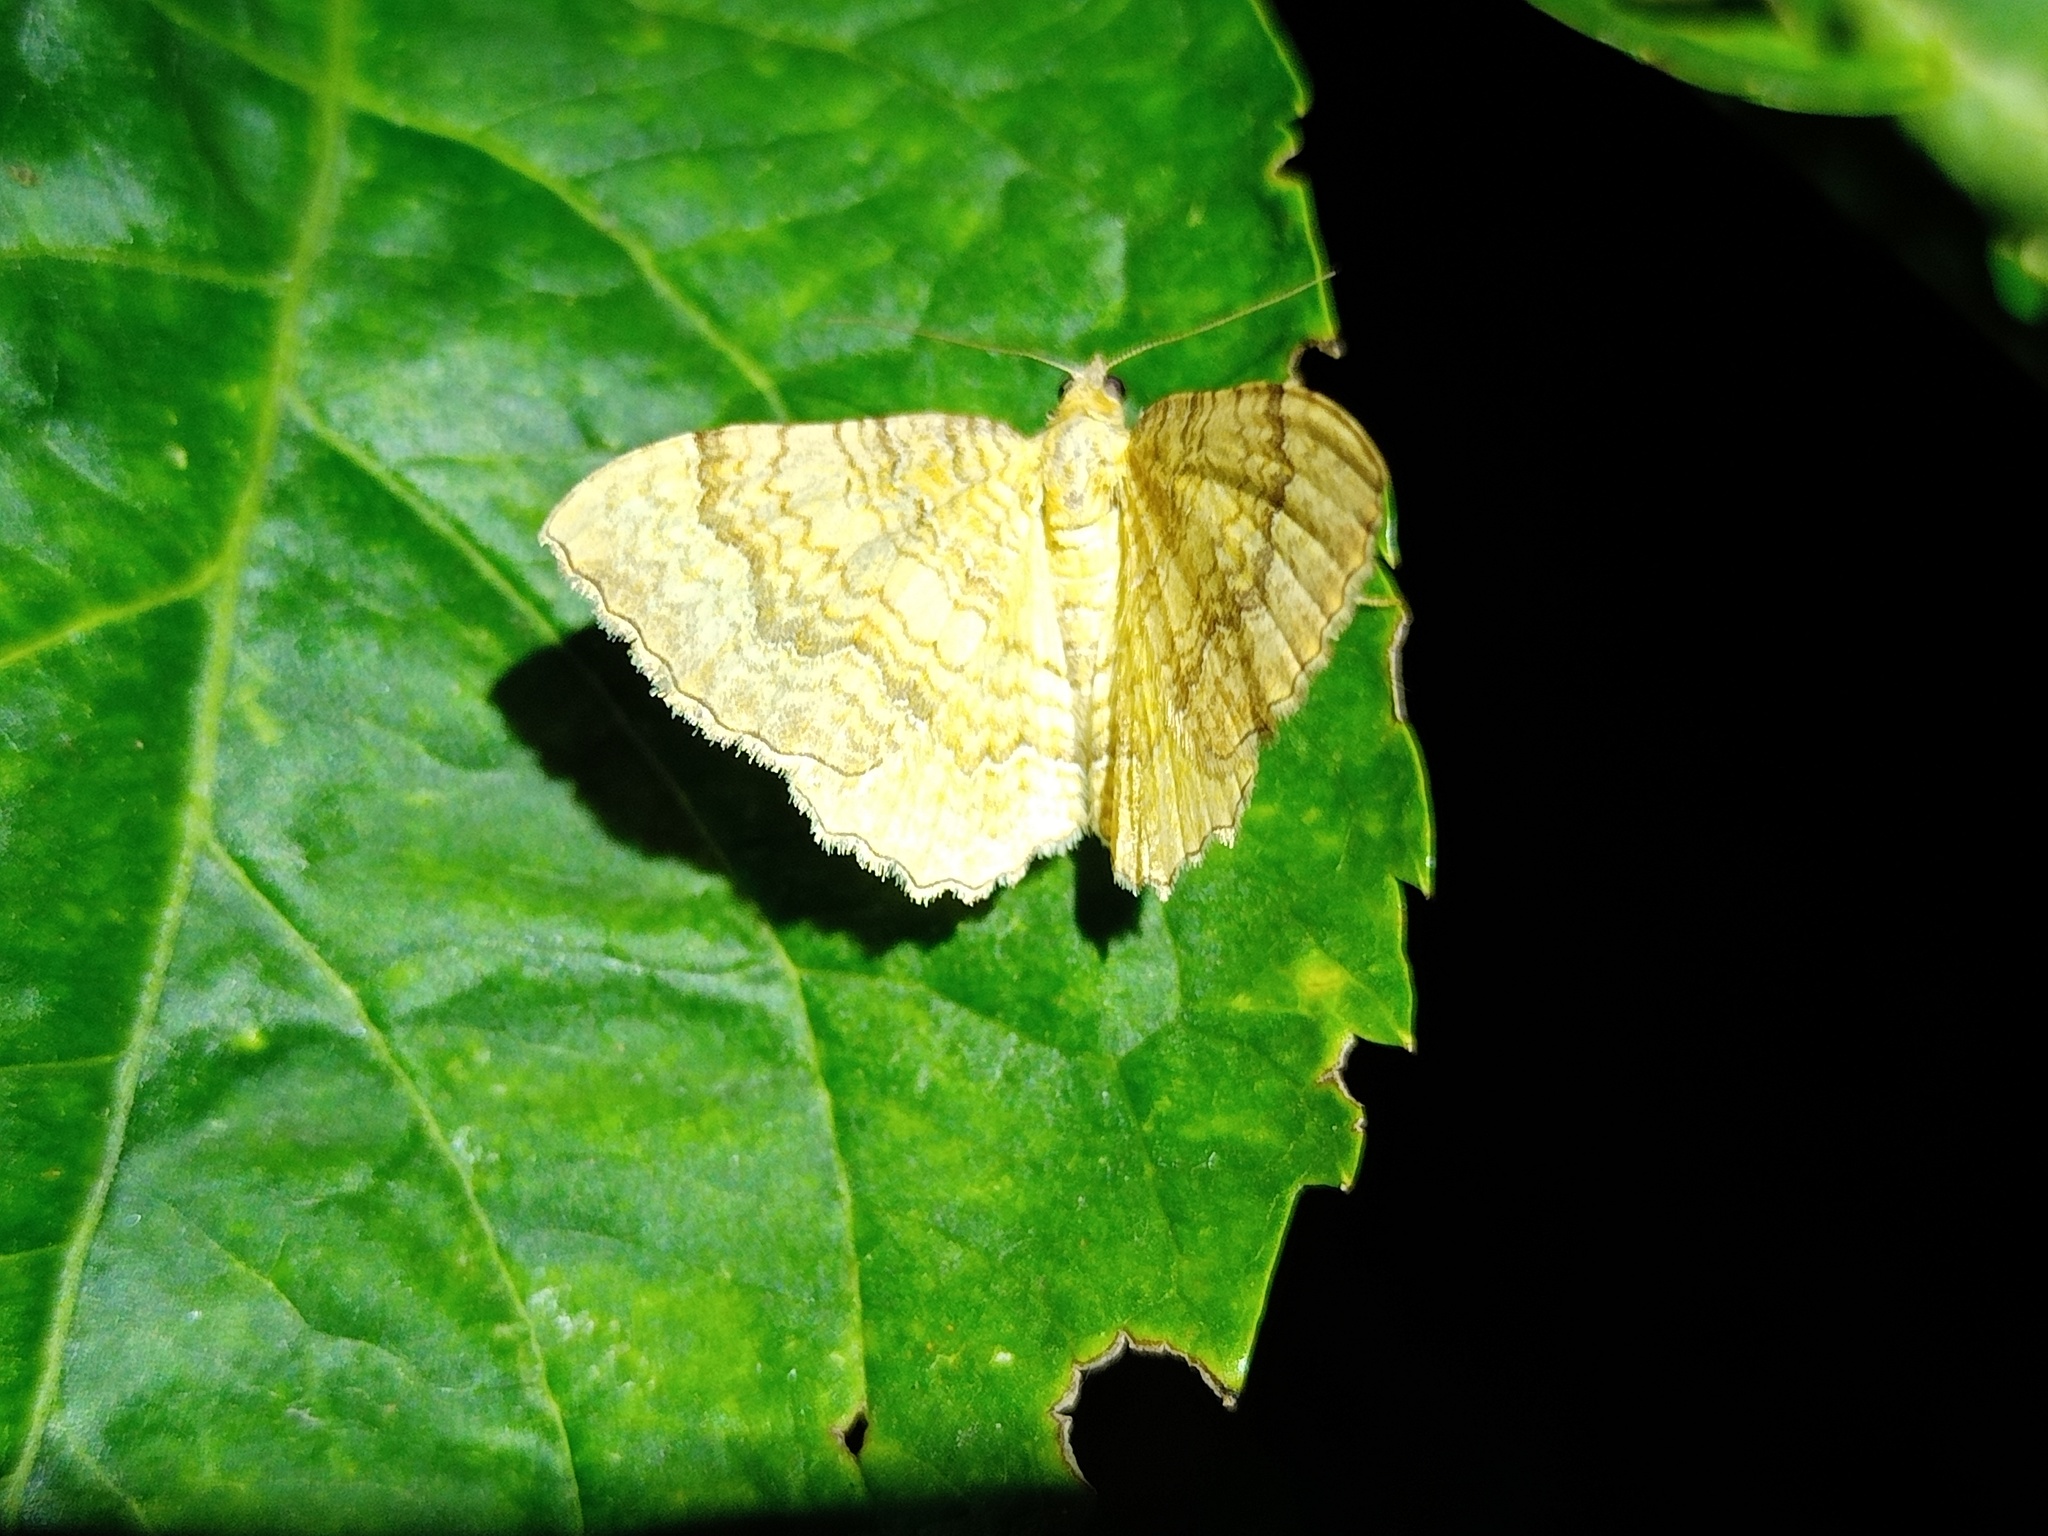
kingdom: Animalia
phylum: Arthropoda
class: Insecta
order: Lepidoptera
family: Geometridae
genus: Camptogramma
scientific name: Camptogramma bilineata
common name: Yellow shell
